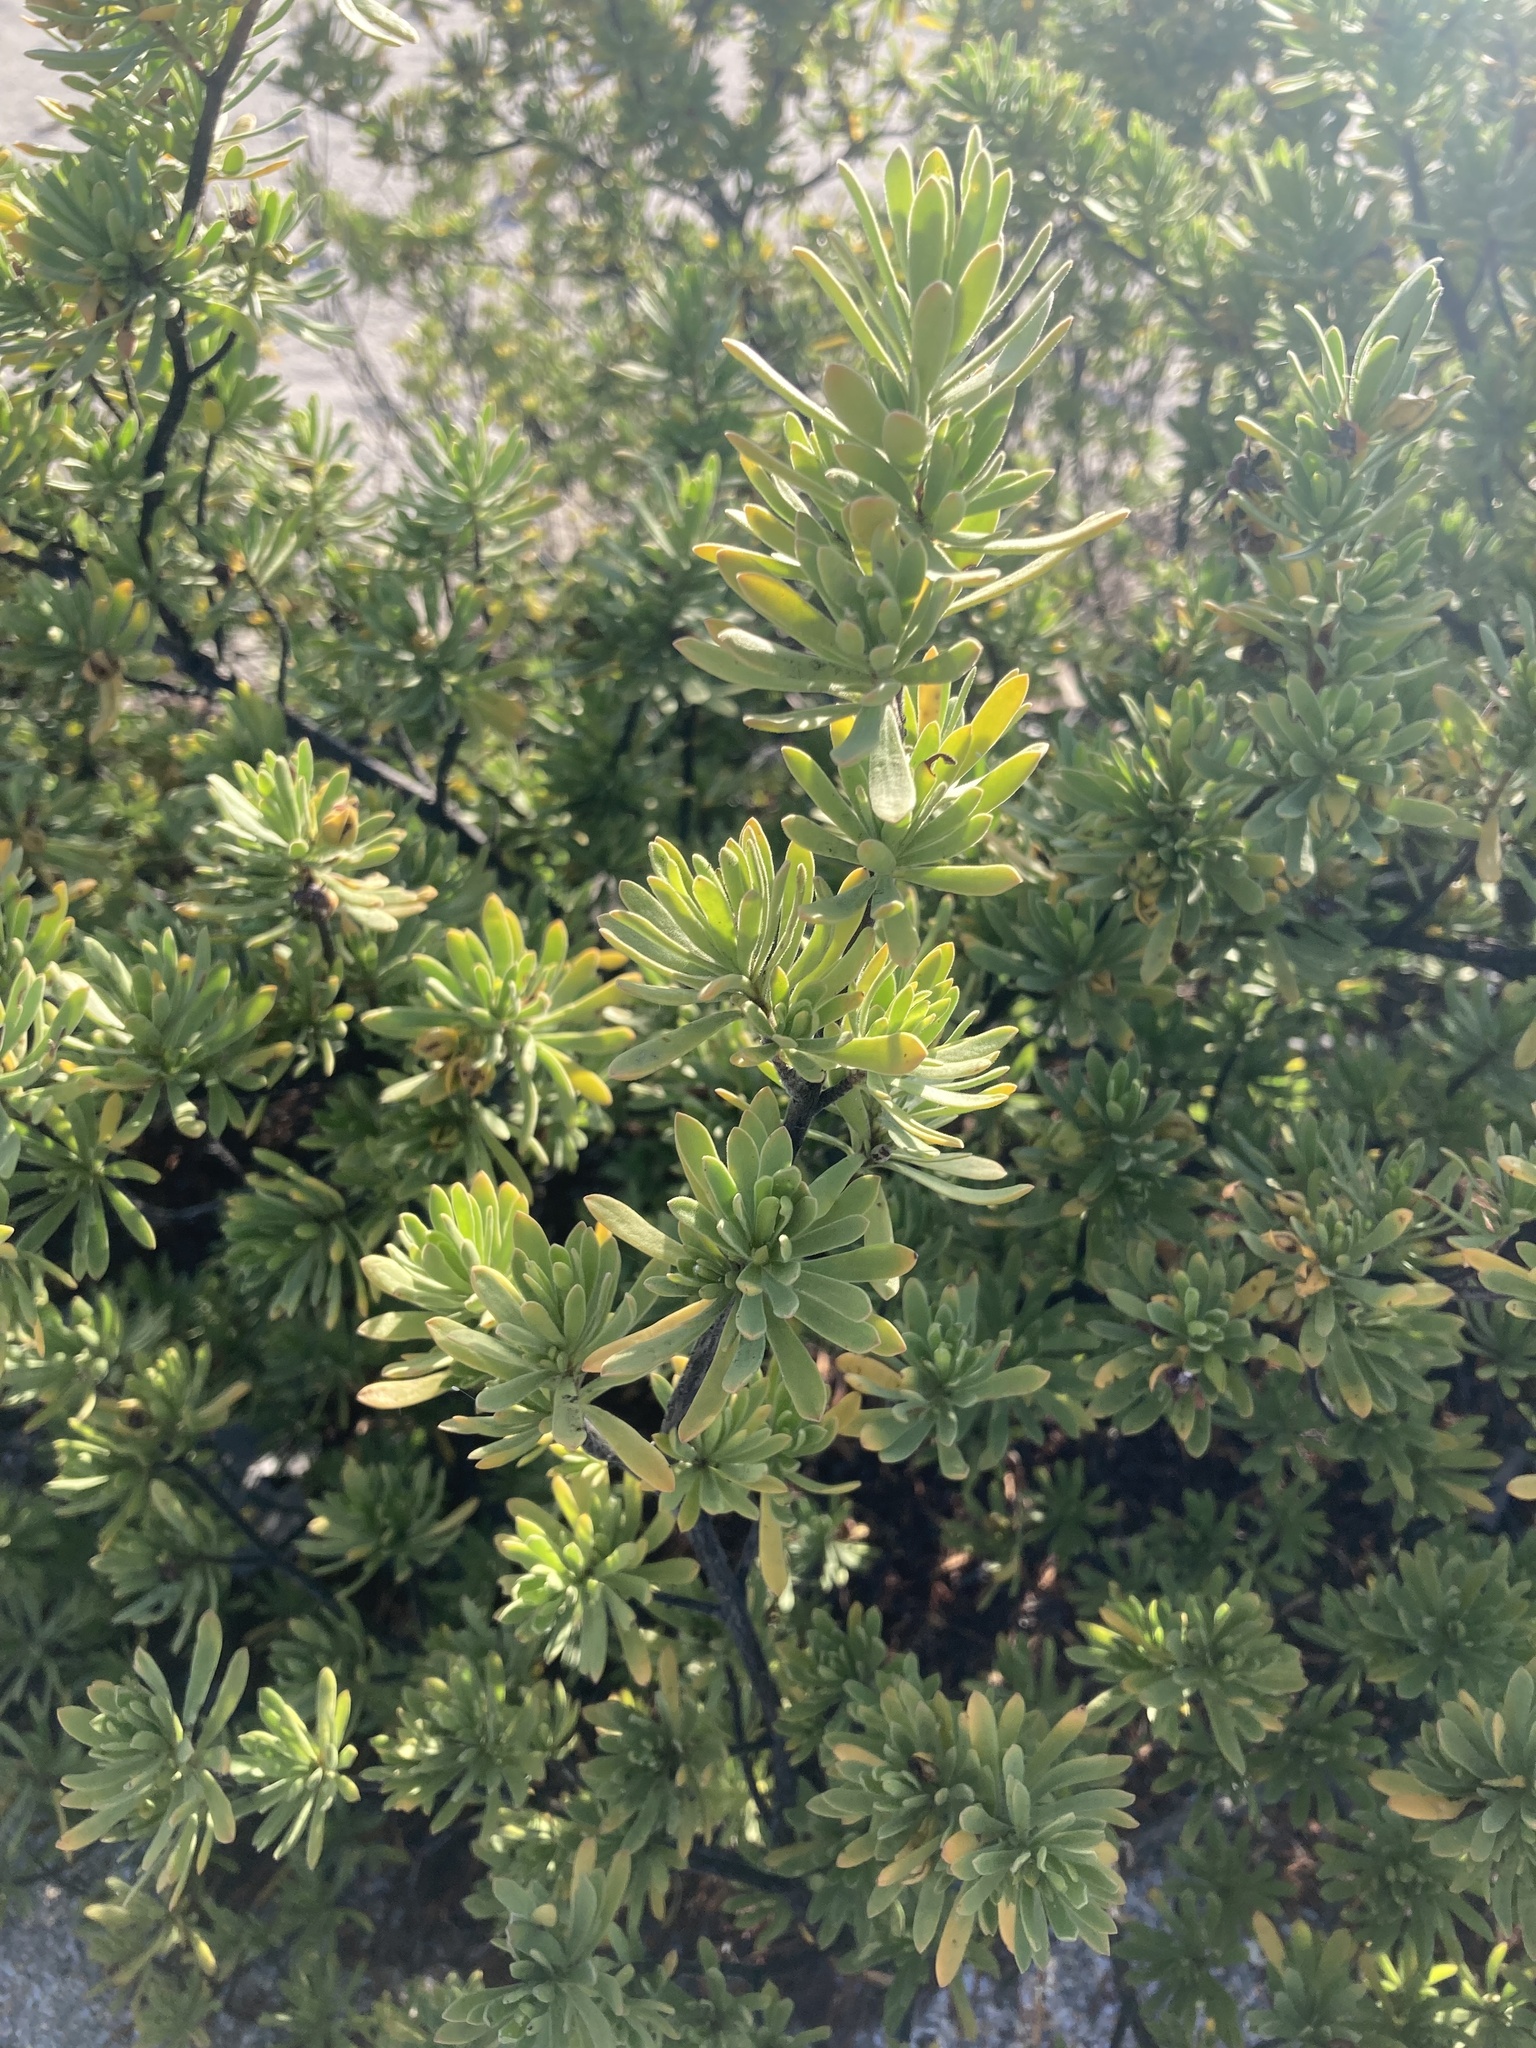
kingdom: Plantae
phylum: Tracheophyta
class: Magnoliopsida
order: Fabales
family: Surianaceae
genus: Suriana
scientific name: Suriana maritima
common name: Bay-cedar
